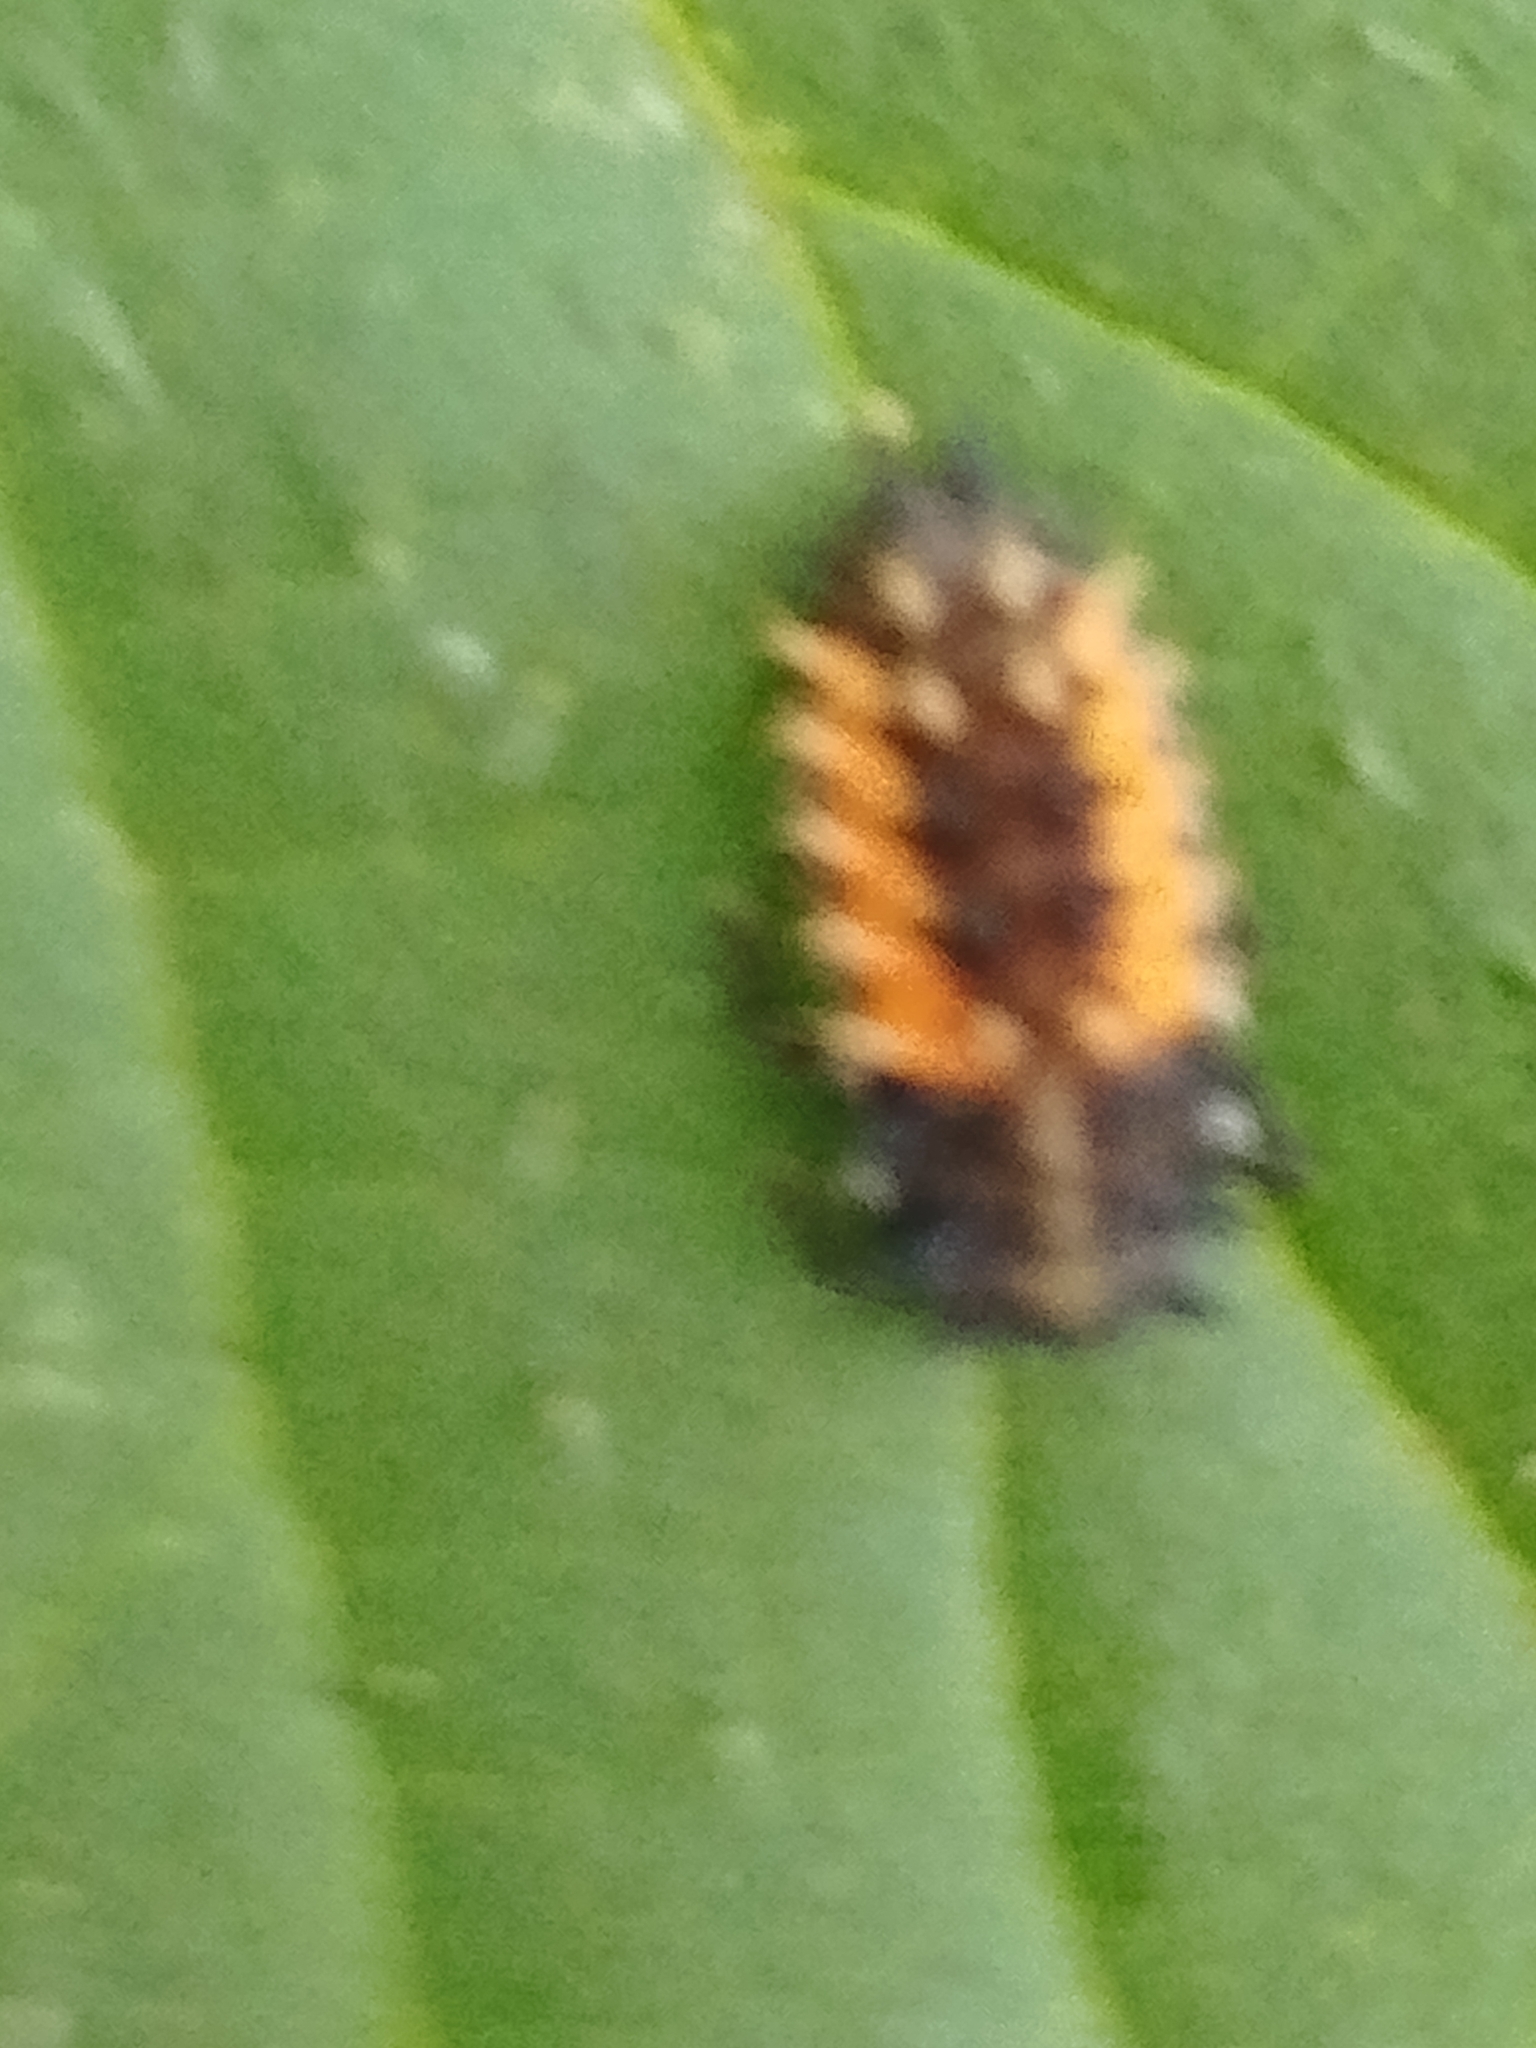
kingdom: Animalia
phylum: Arthropoda
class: Insecta
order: Coleoptera
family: Coccinellidae
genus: Harmonia
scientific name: Harmonia axyridis
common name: Harlequin ladybird
